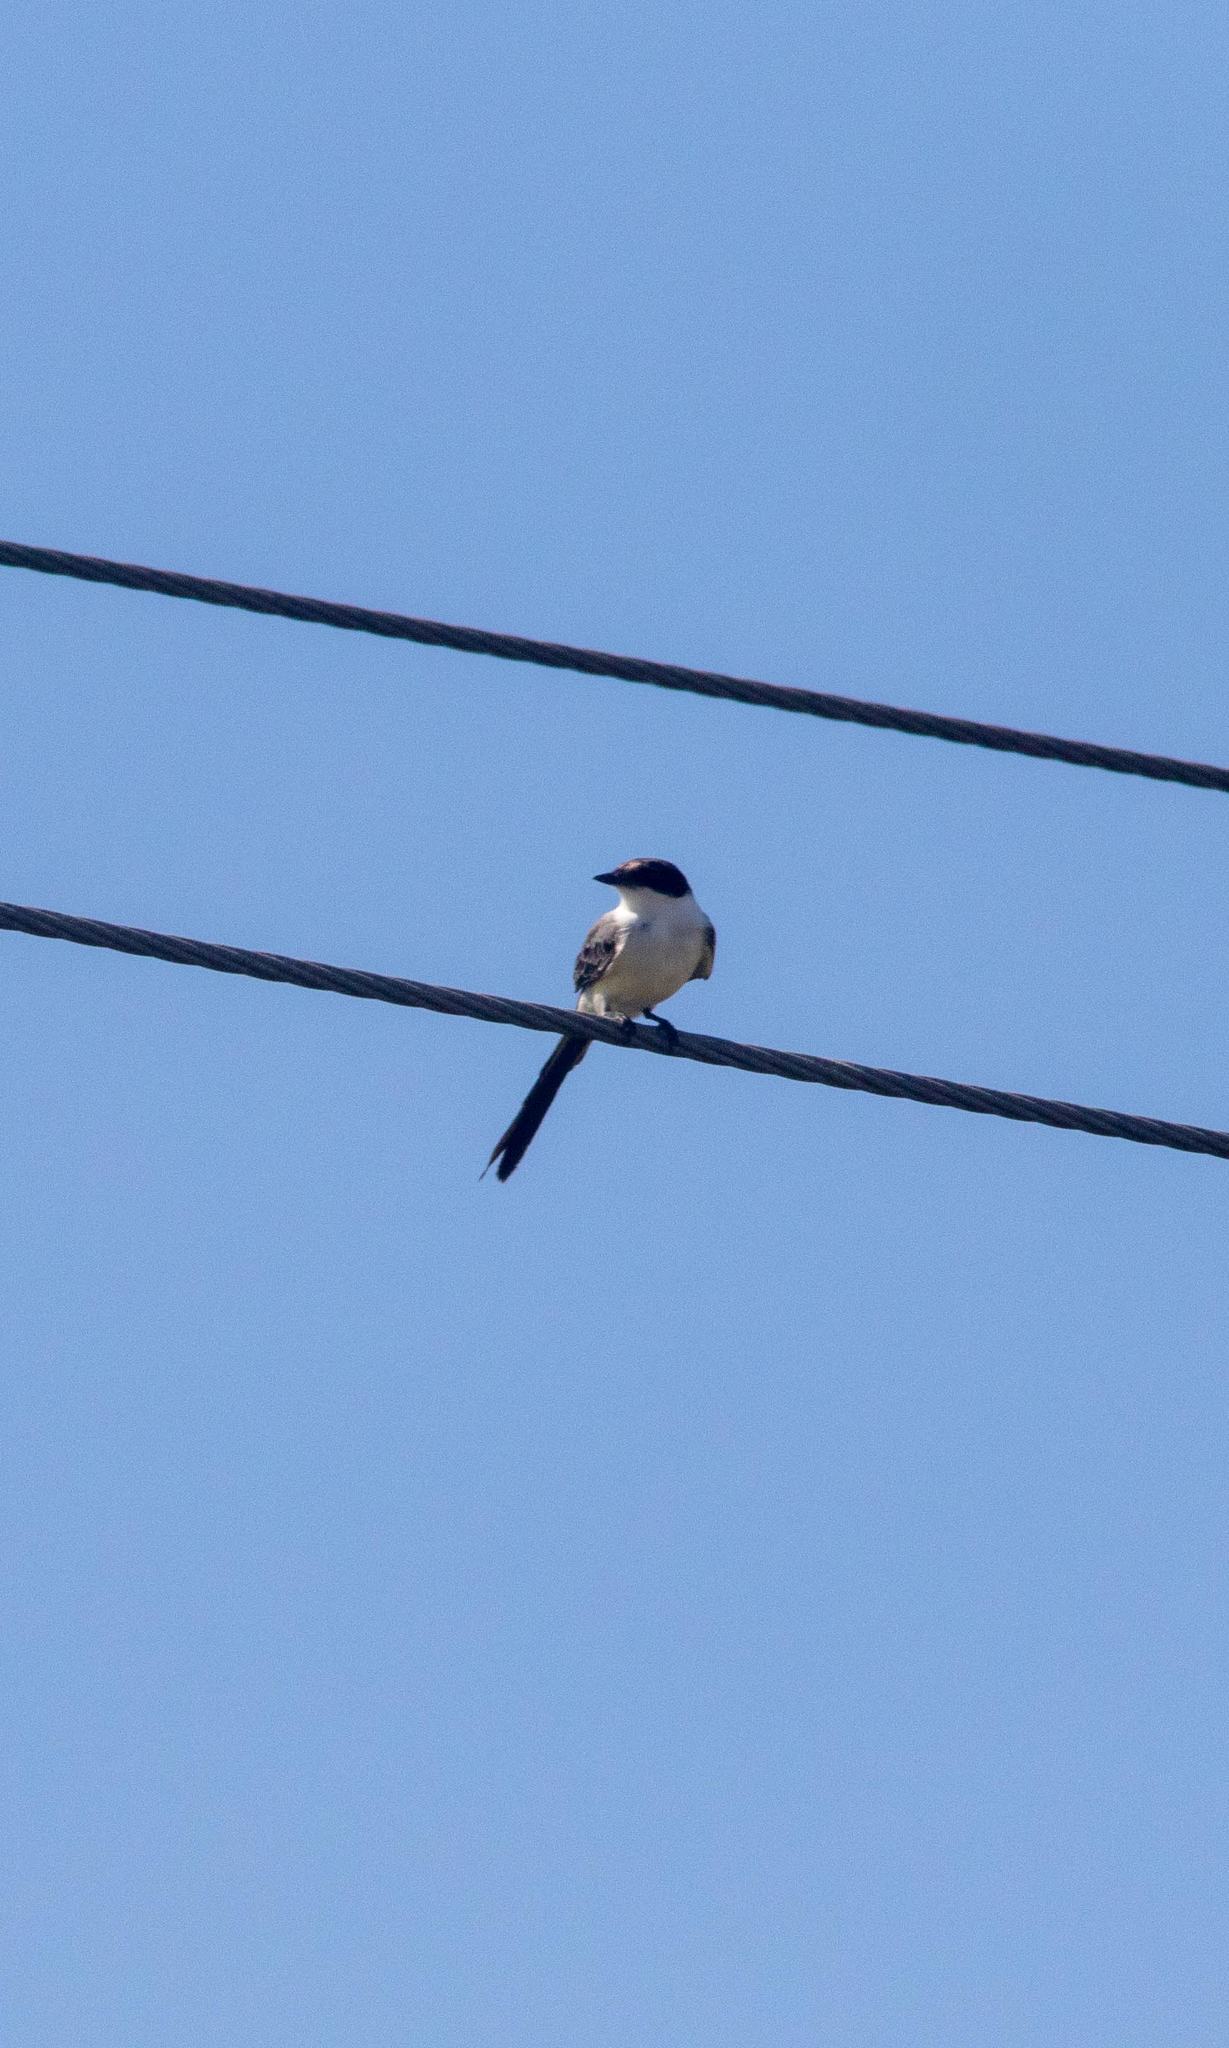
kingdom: Animalia
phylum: Chordata
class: Aves
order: Passeriformes
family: Tyrannidae
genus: Tyrannus
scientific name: Tyrannus savana
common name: Fork-tailed flycatcher
